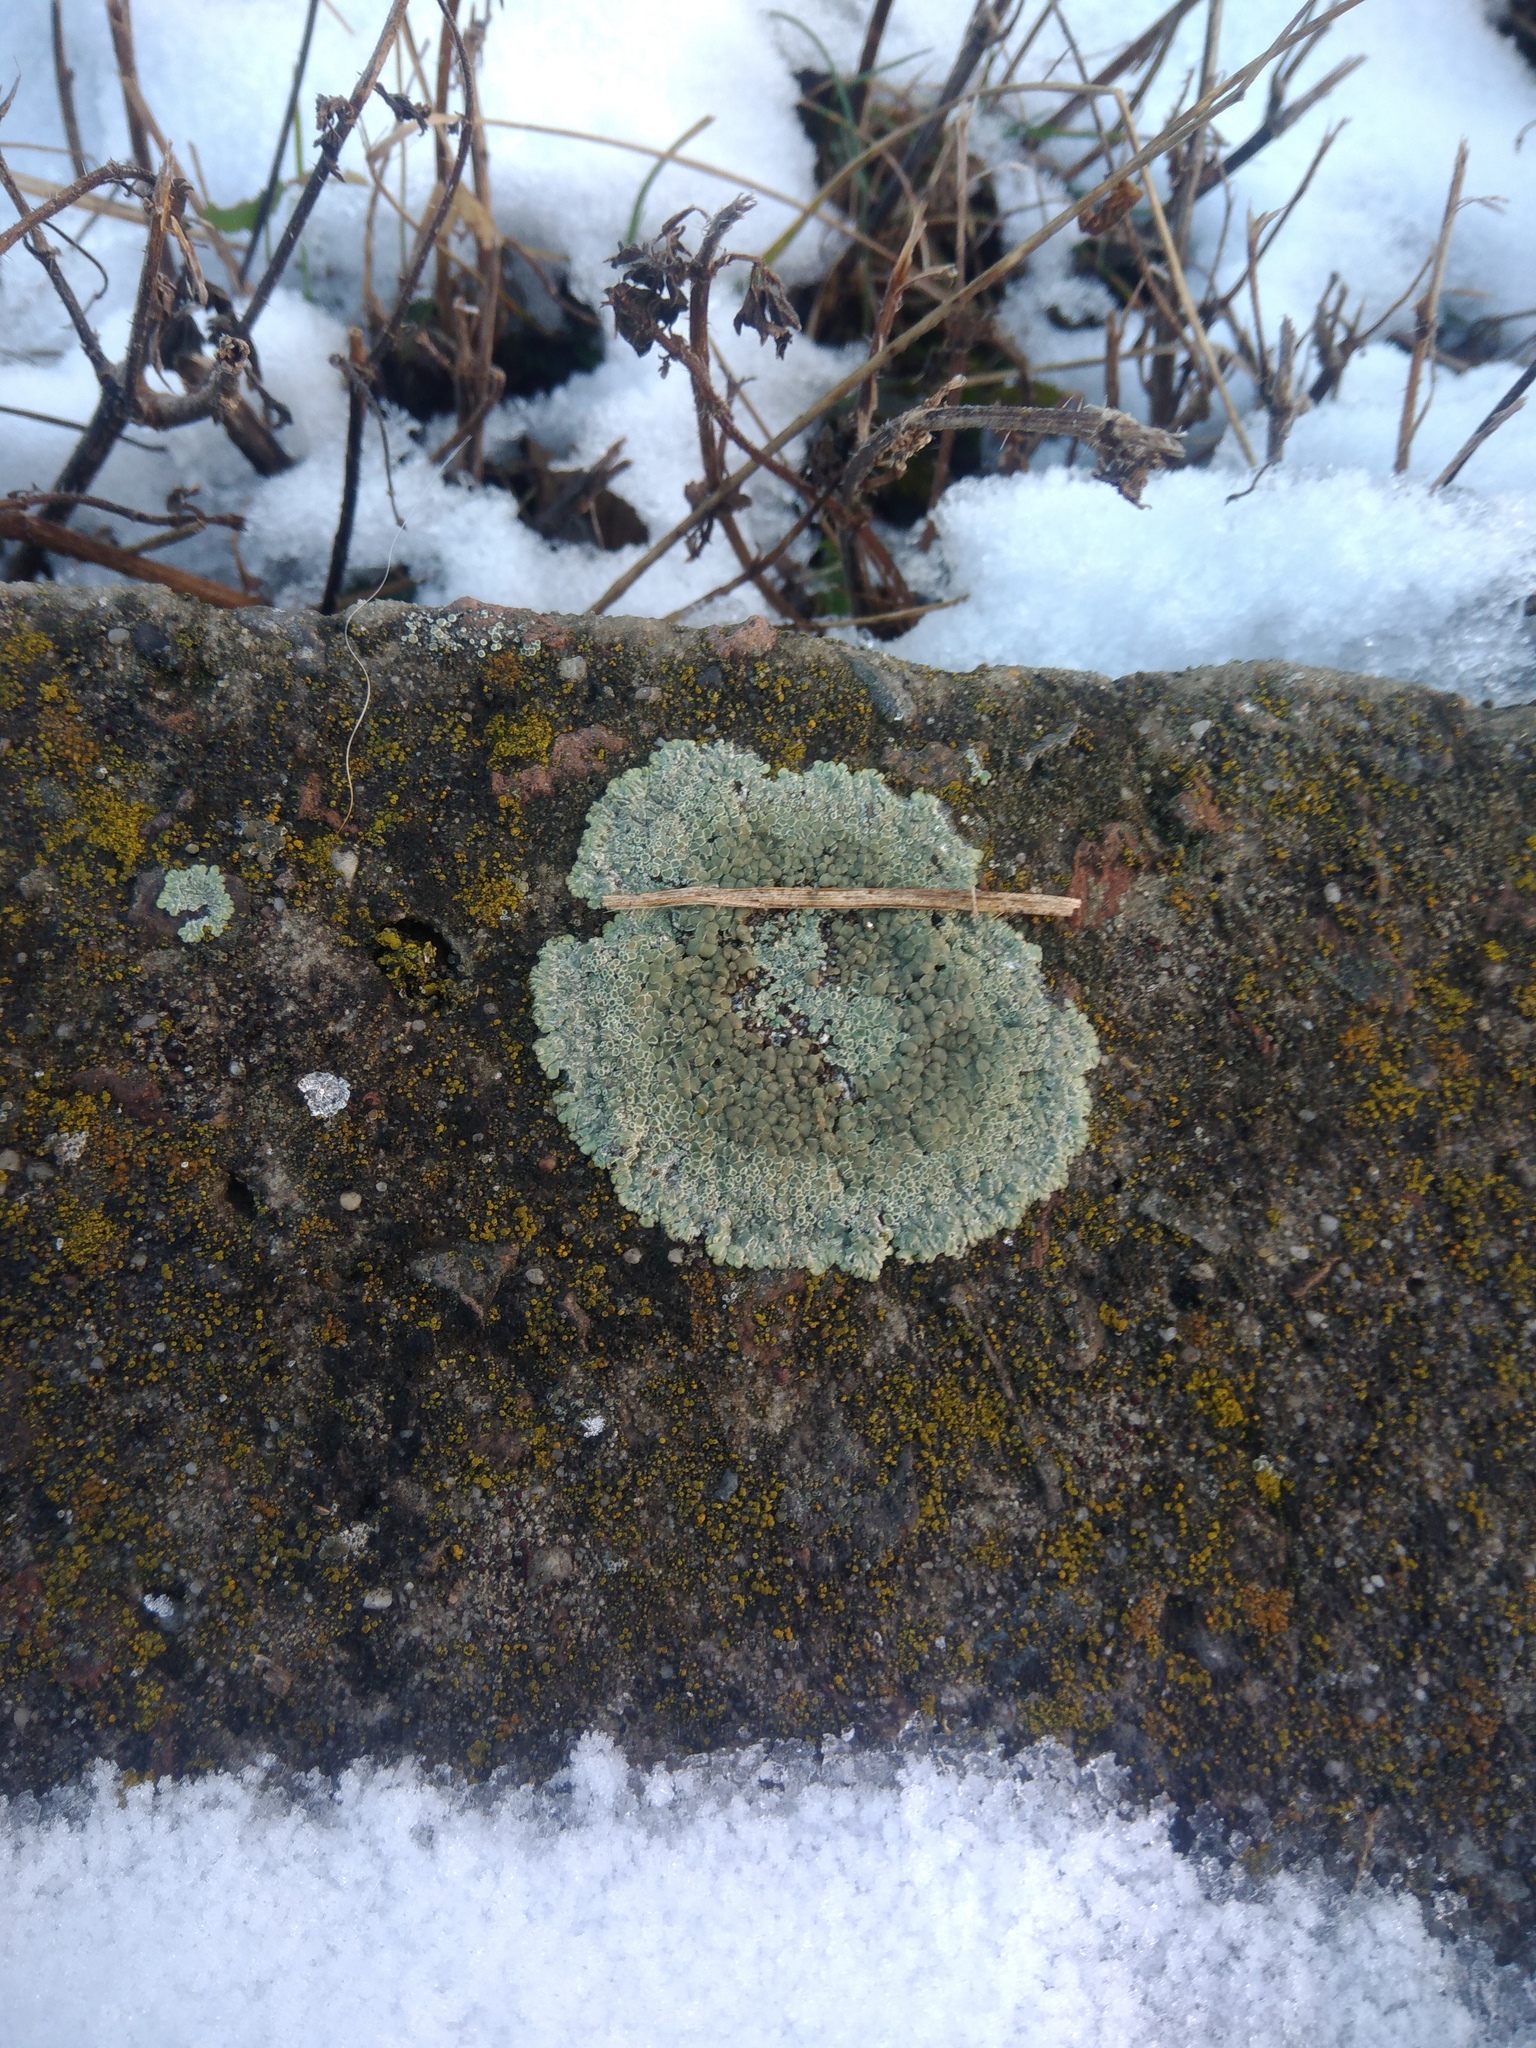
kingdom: Fungi
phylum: Ascomycota
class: Lecanoromycetes
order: Lecanorales
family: Lecanoraceae
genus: Protoparmeliopsis
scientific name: Protoparmeliopsis muralis
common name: Stonewall rim lichen
